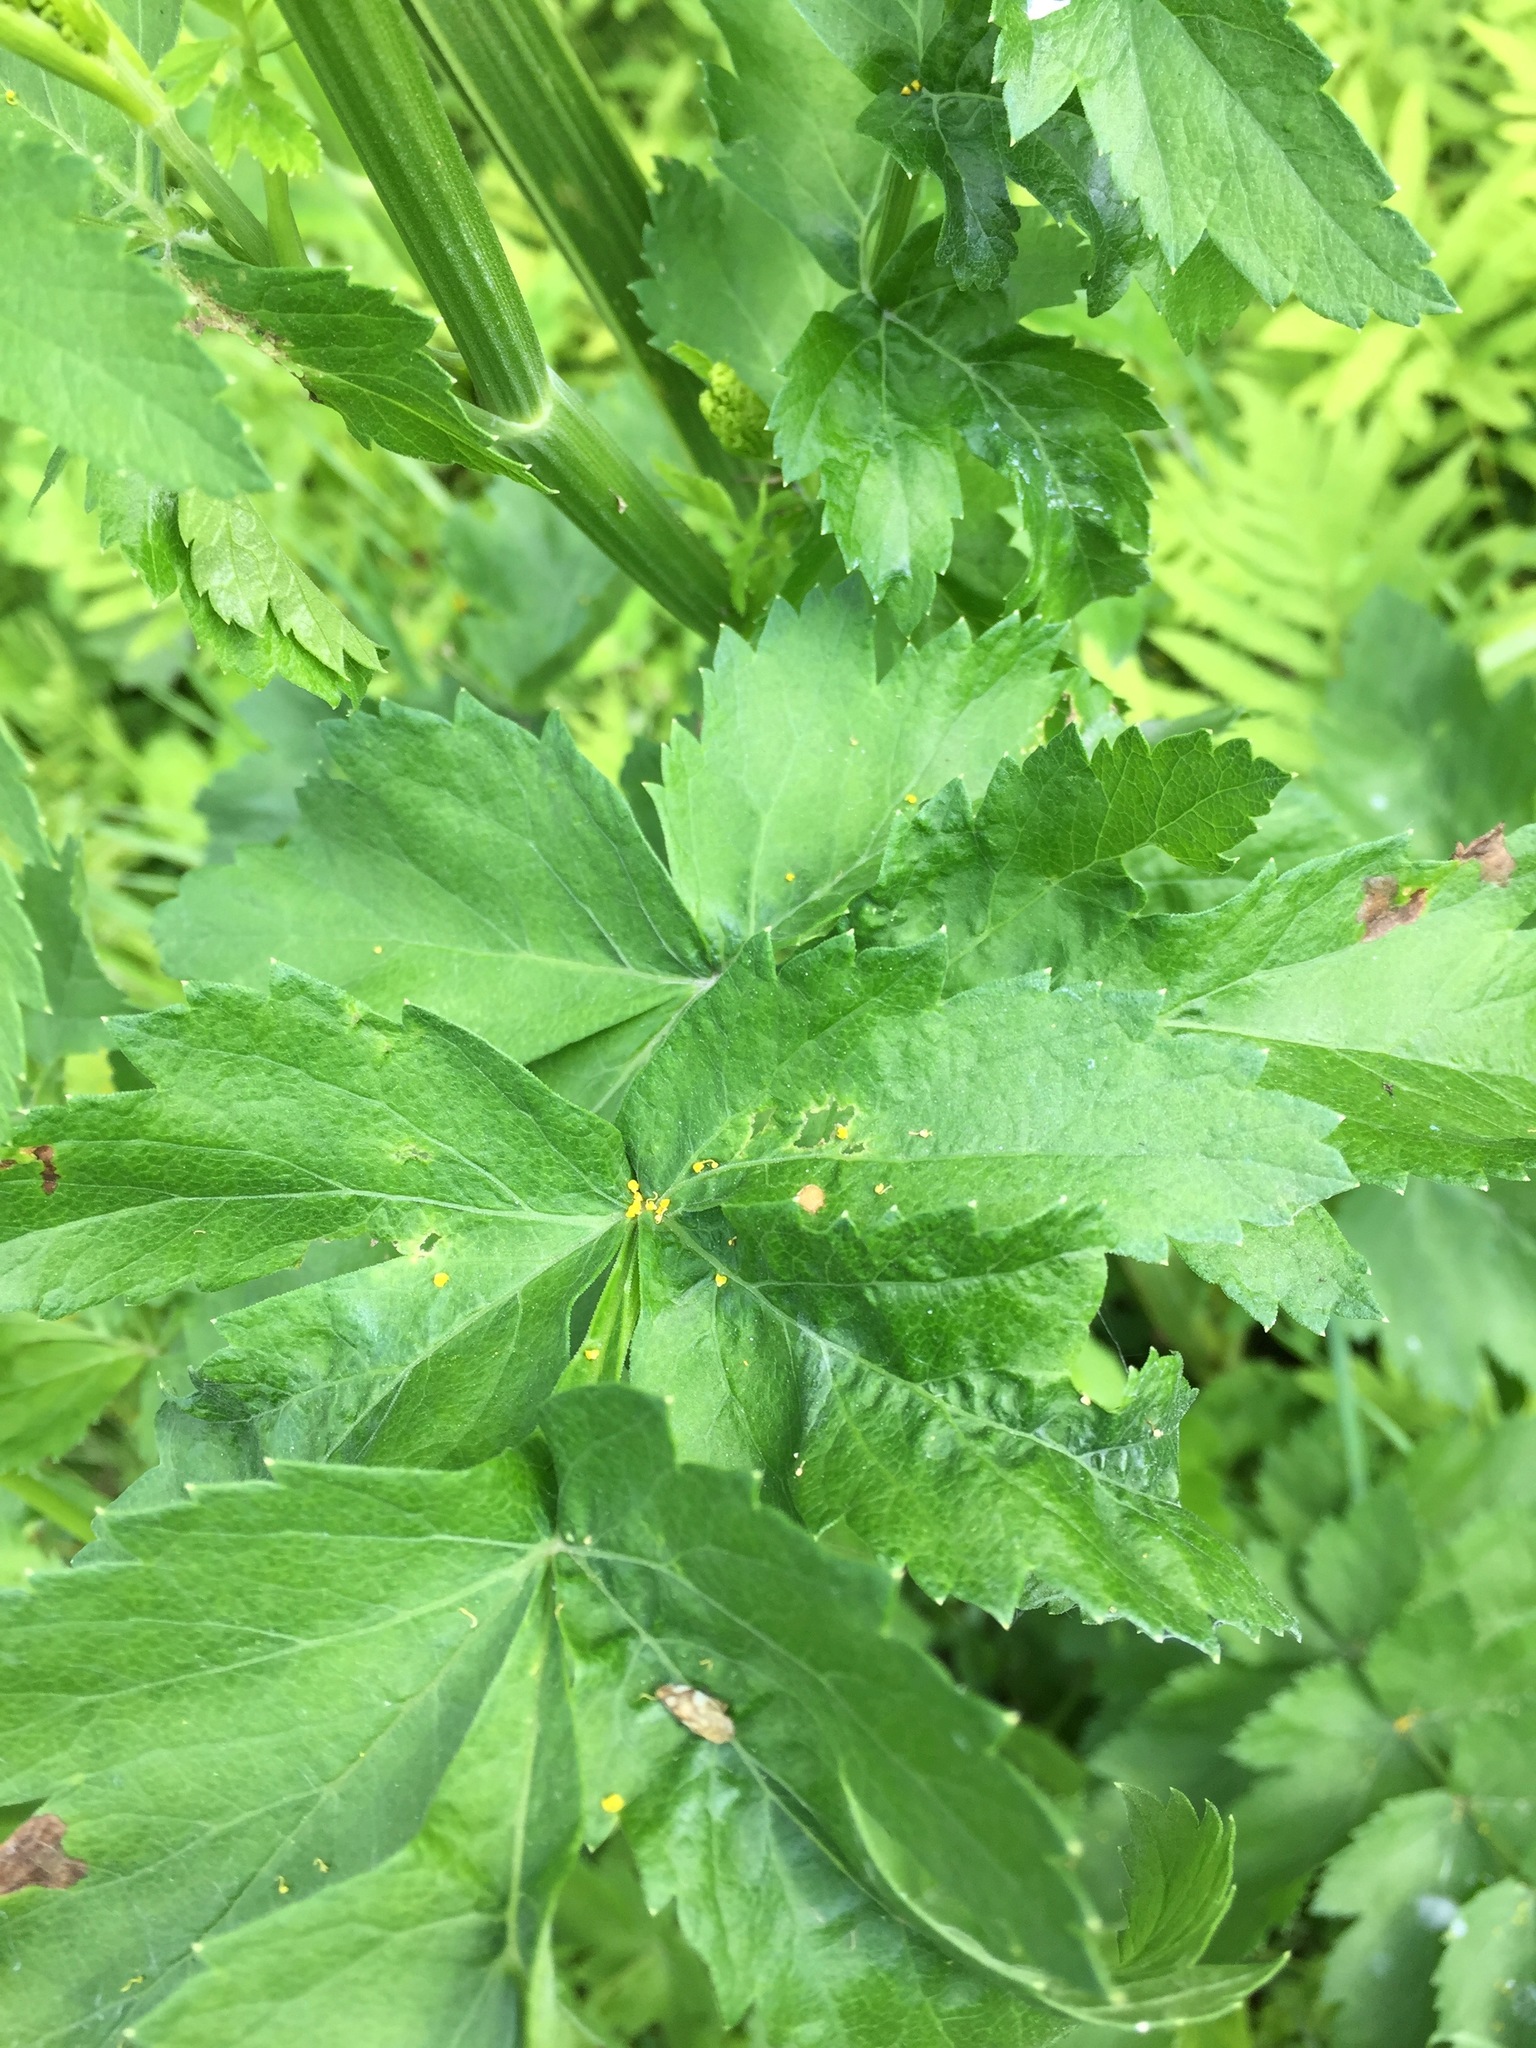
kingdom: Plantae
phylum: Tracheophyta
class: Magnoliopsida
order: Apiales
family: Apiaceae
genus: Pastinaca
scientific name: Pastinaca sativa
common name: Wild parsnip
